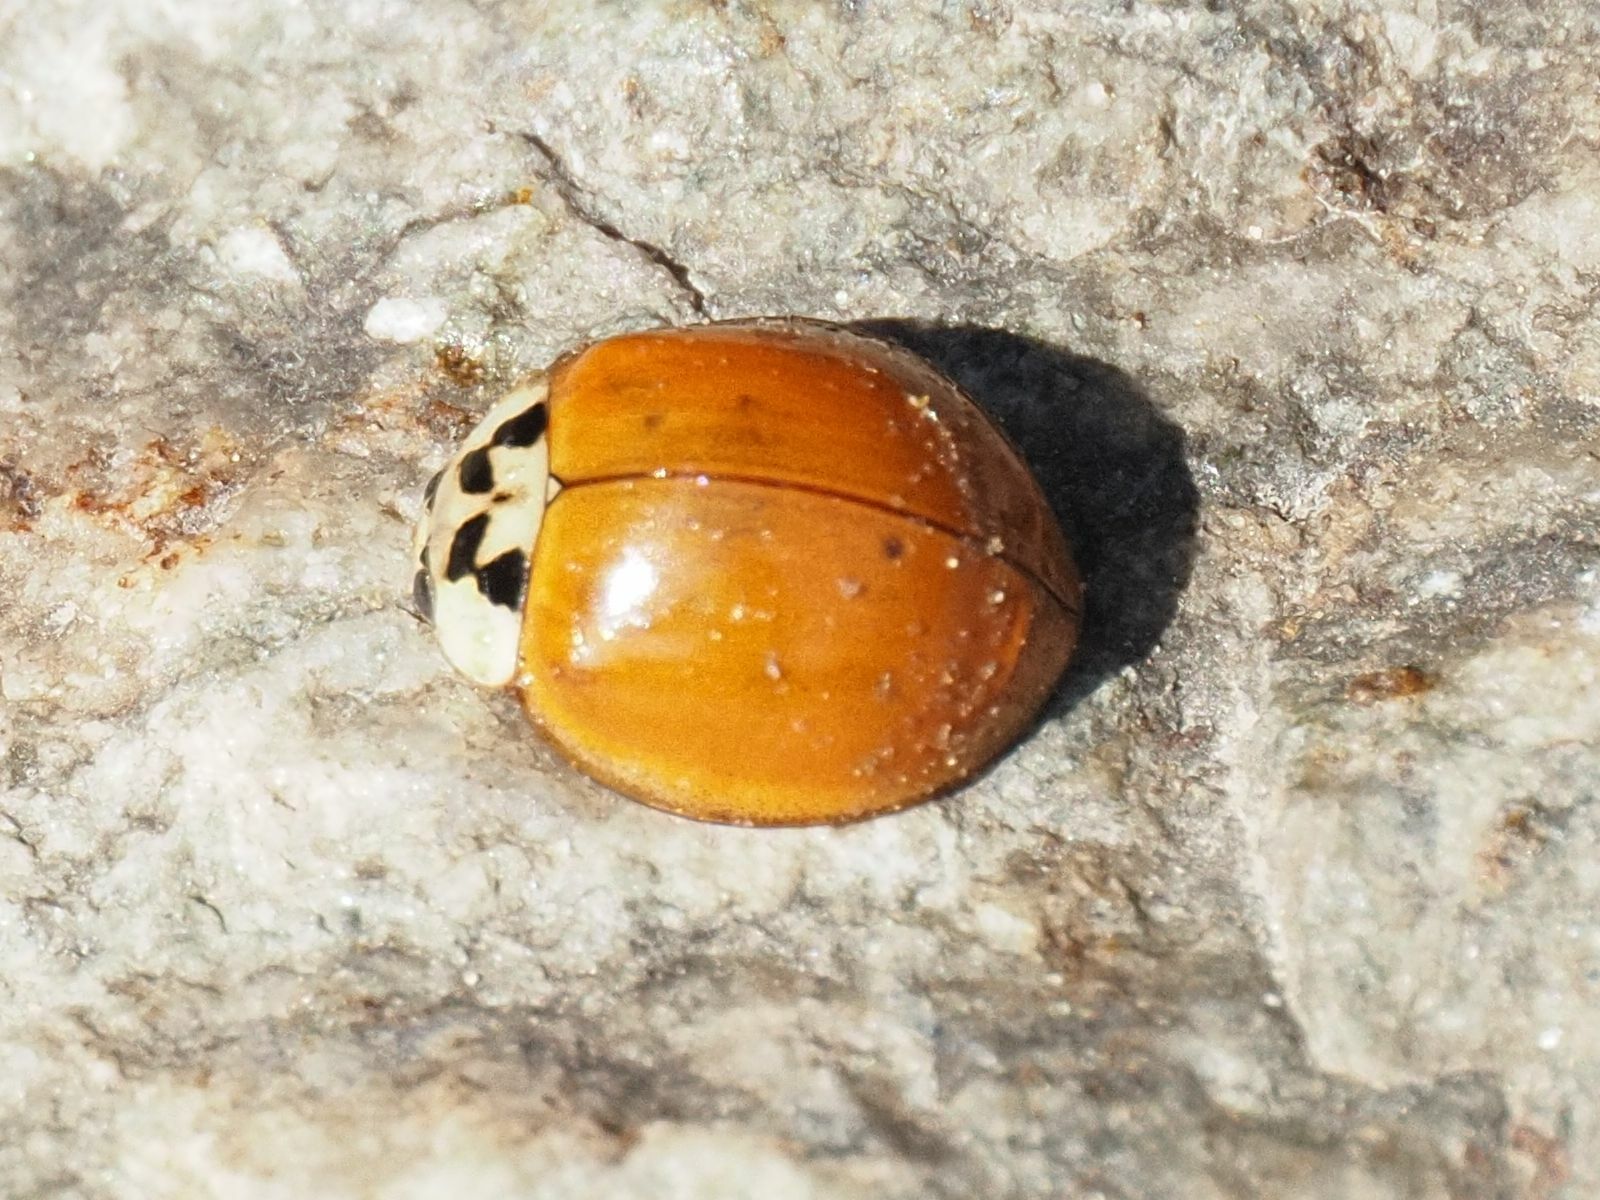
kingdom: Animalia
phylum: Arthropoda
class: Insecta
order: Coleoptera
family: Coccinellidae
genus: Harmonia
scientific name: Harmonia axyridis
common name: Harlequin ladybird
